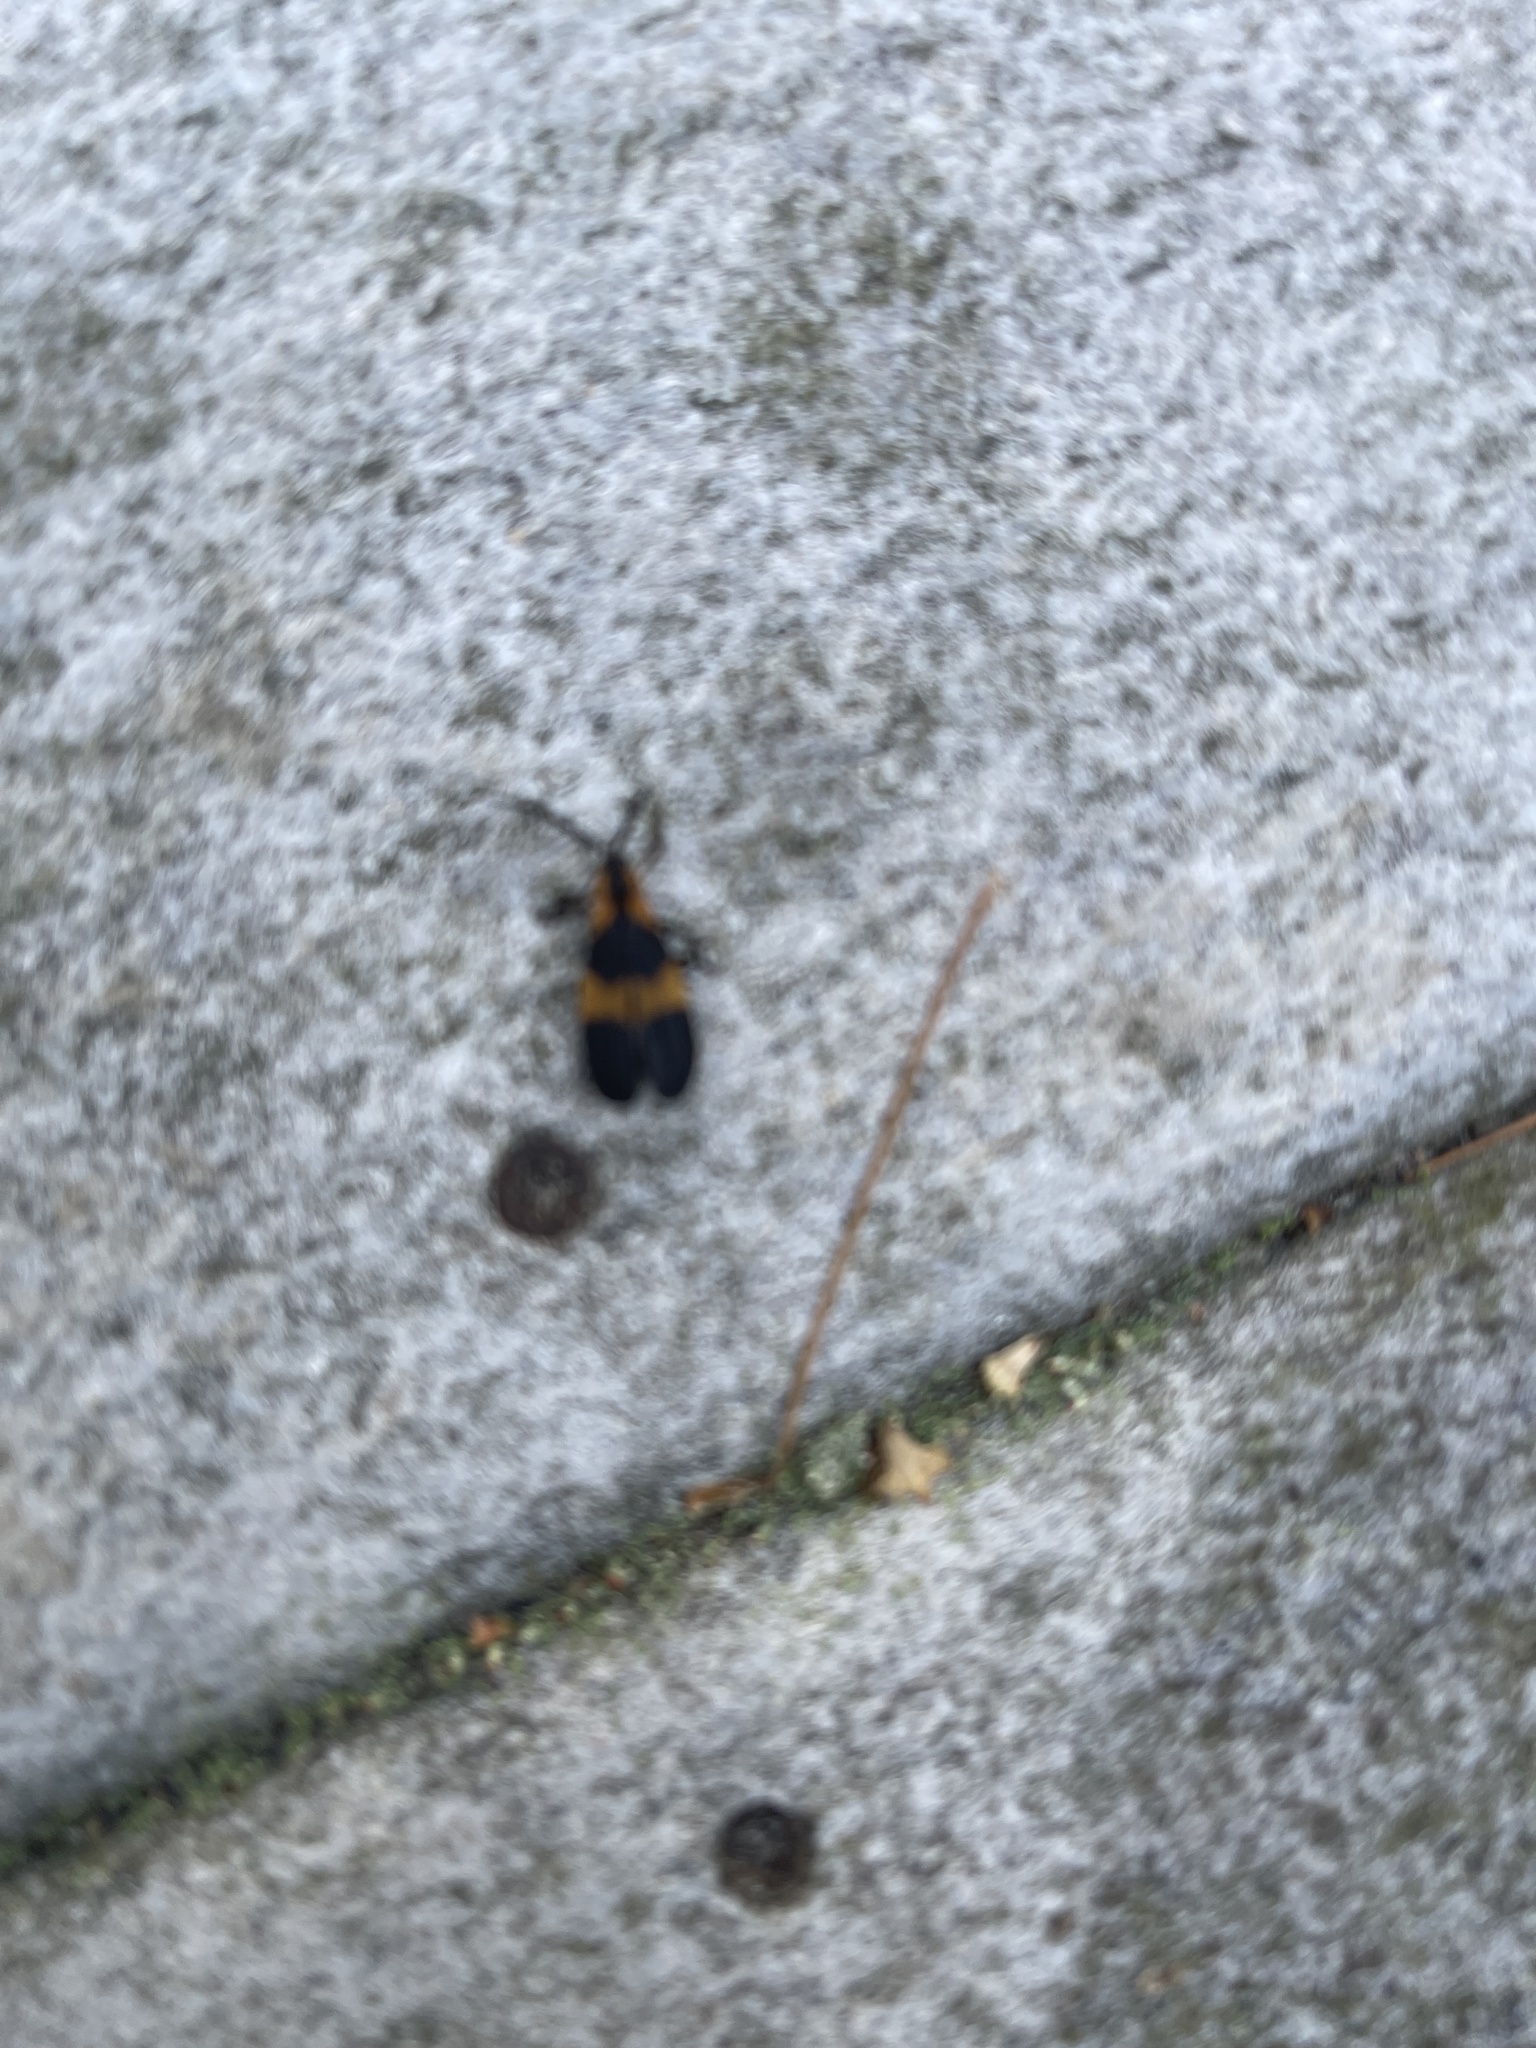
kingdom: Animalia
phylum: Arthropoda
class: Insecta
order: Coleoptera
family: Lycidae
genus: Calopteron
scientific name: Calopteron reticulatum
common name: Banded net-winged beetle
